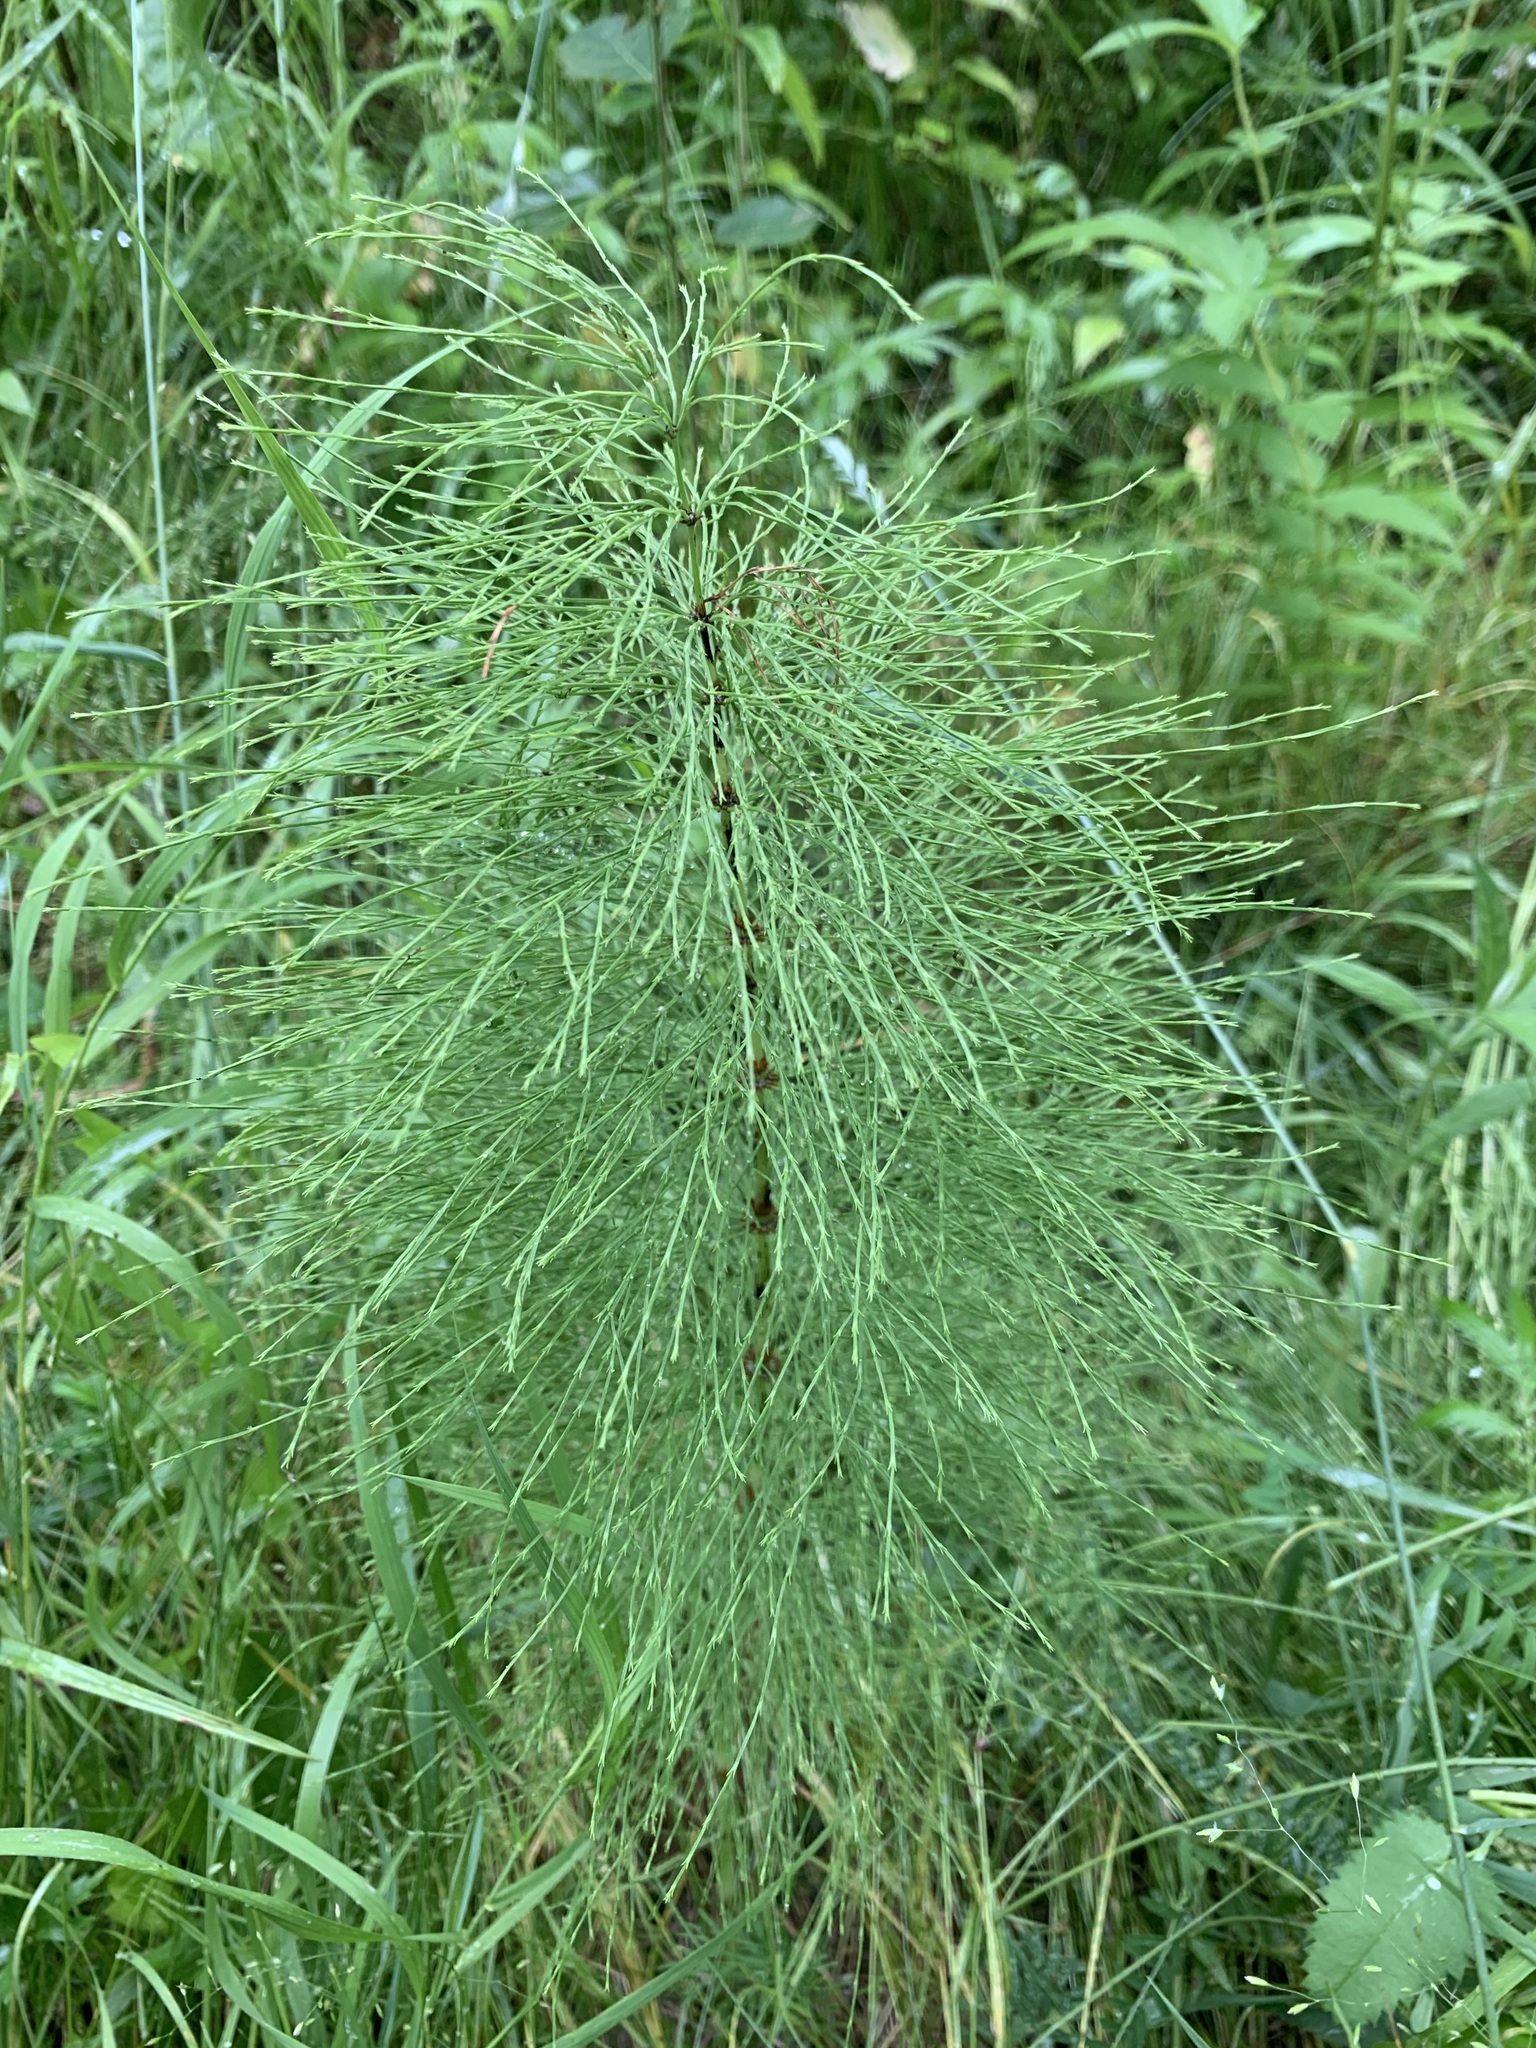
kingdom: Plantae
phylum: Tracheophyta
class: Polypodiopsida
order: Equisetales
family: Equisetaceae
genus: Equisetum
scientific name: Equisetum sylvaticum
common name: Wood horsetail
